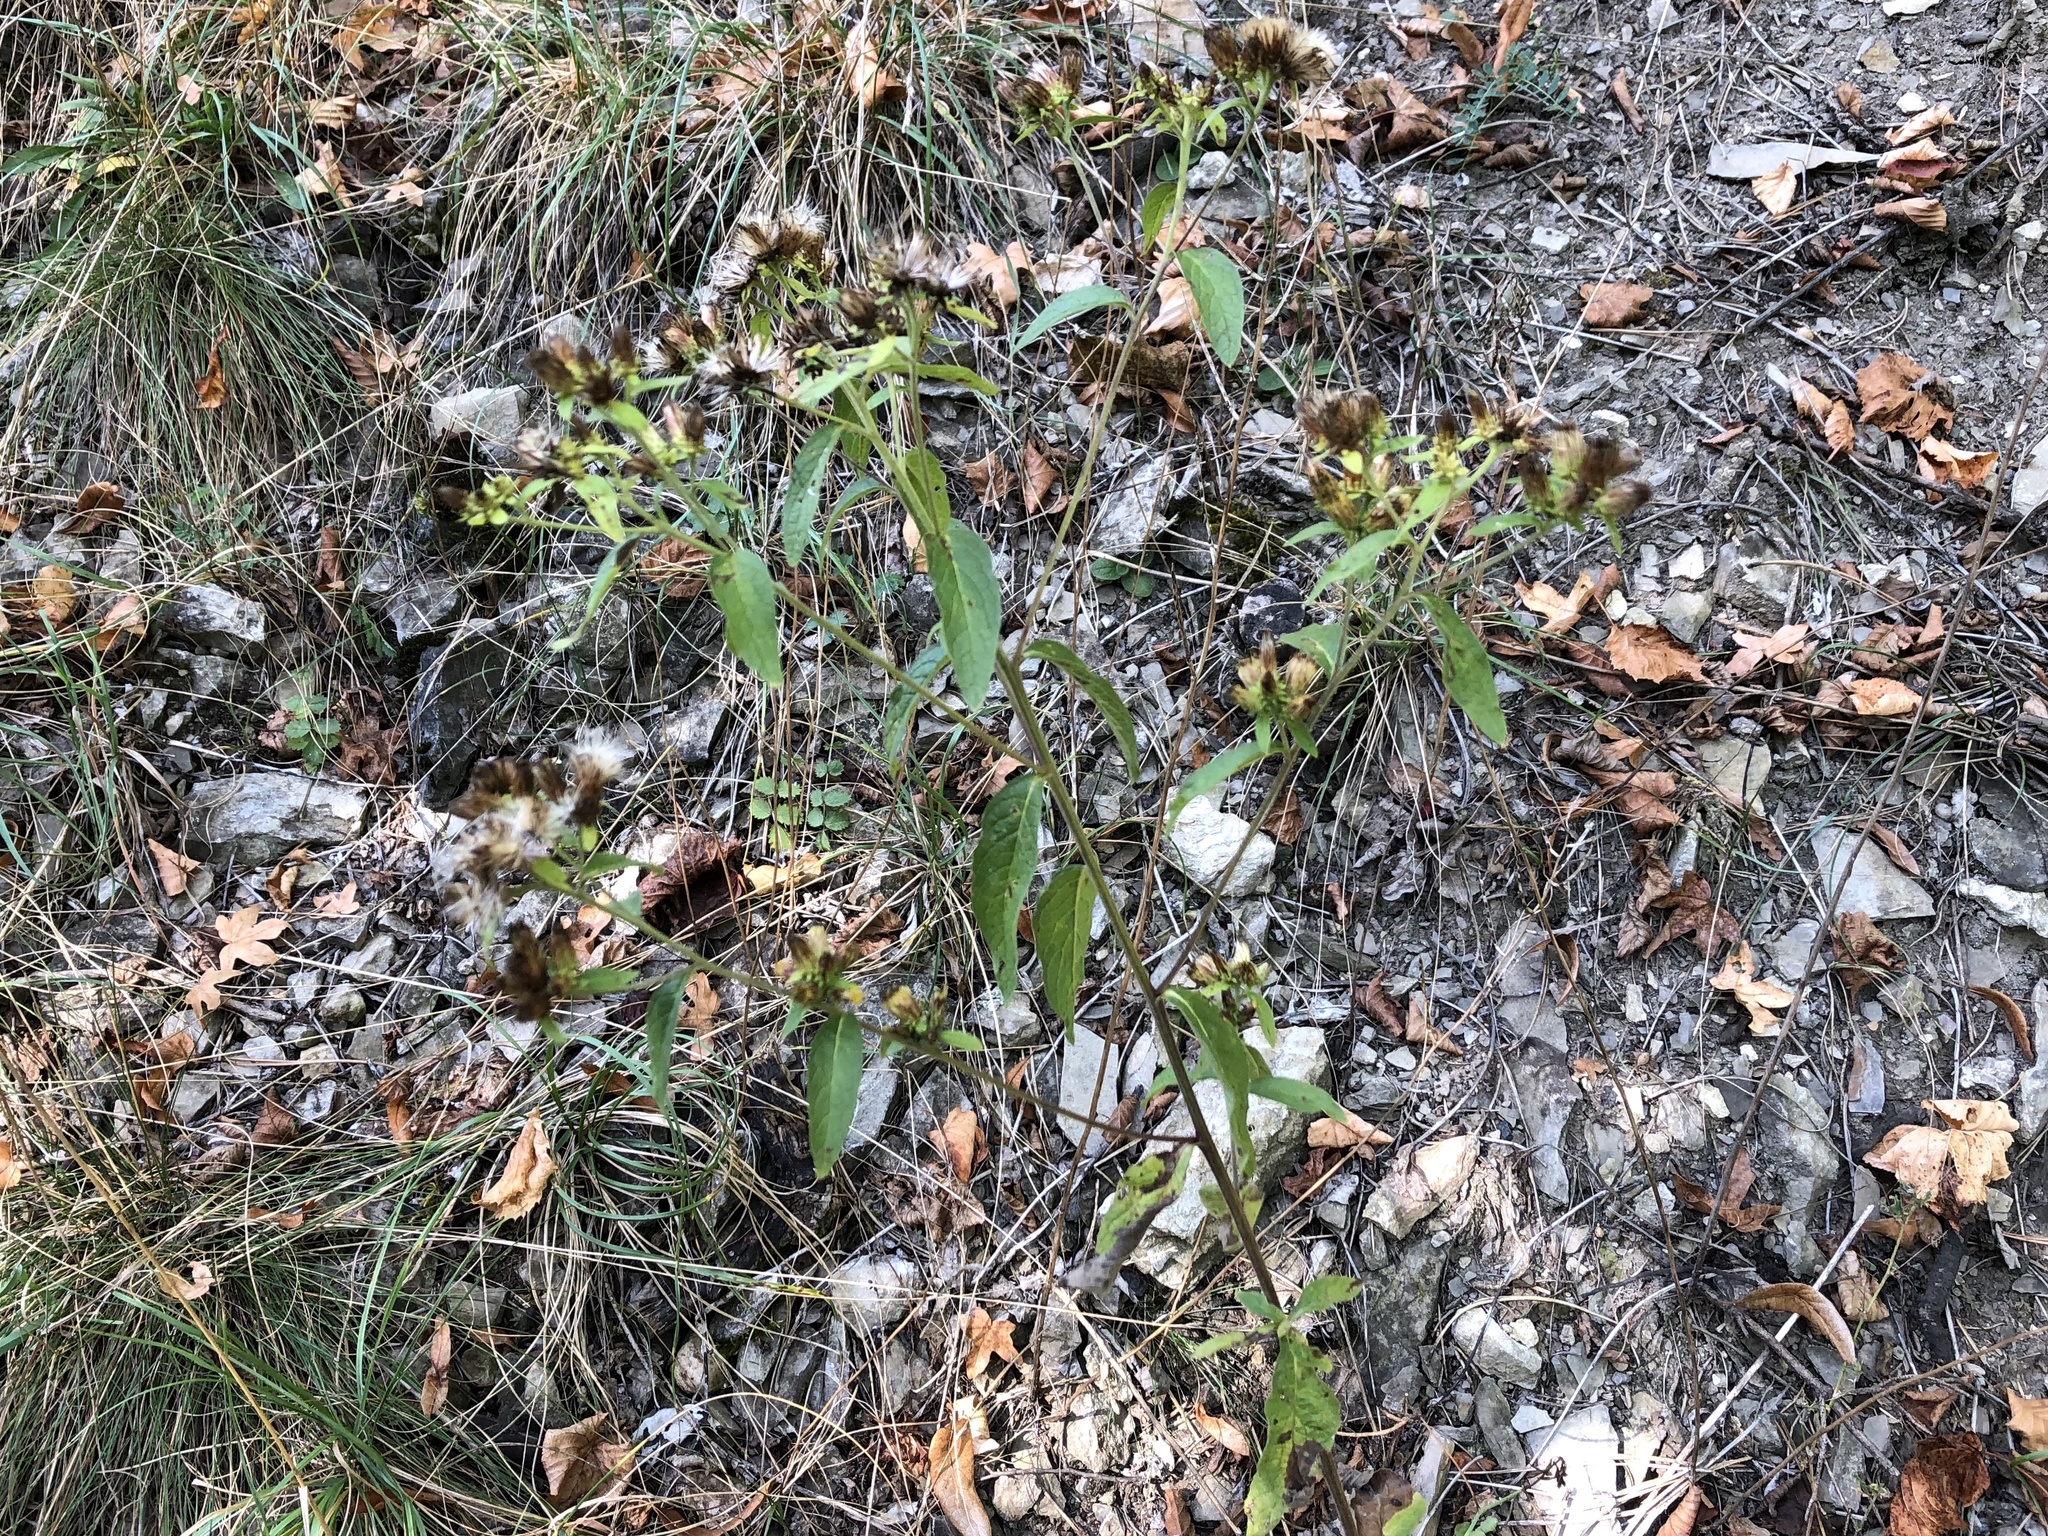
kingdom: Plantae
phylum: Tracheophyta
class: Magnoliopsida
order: Asterales
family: Asteraceae
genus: Pentanema
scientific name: Pentanema squarrosum
